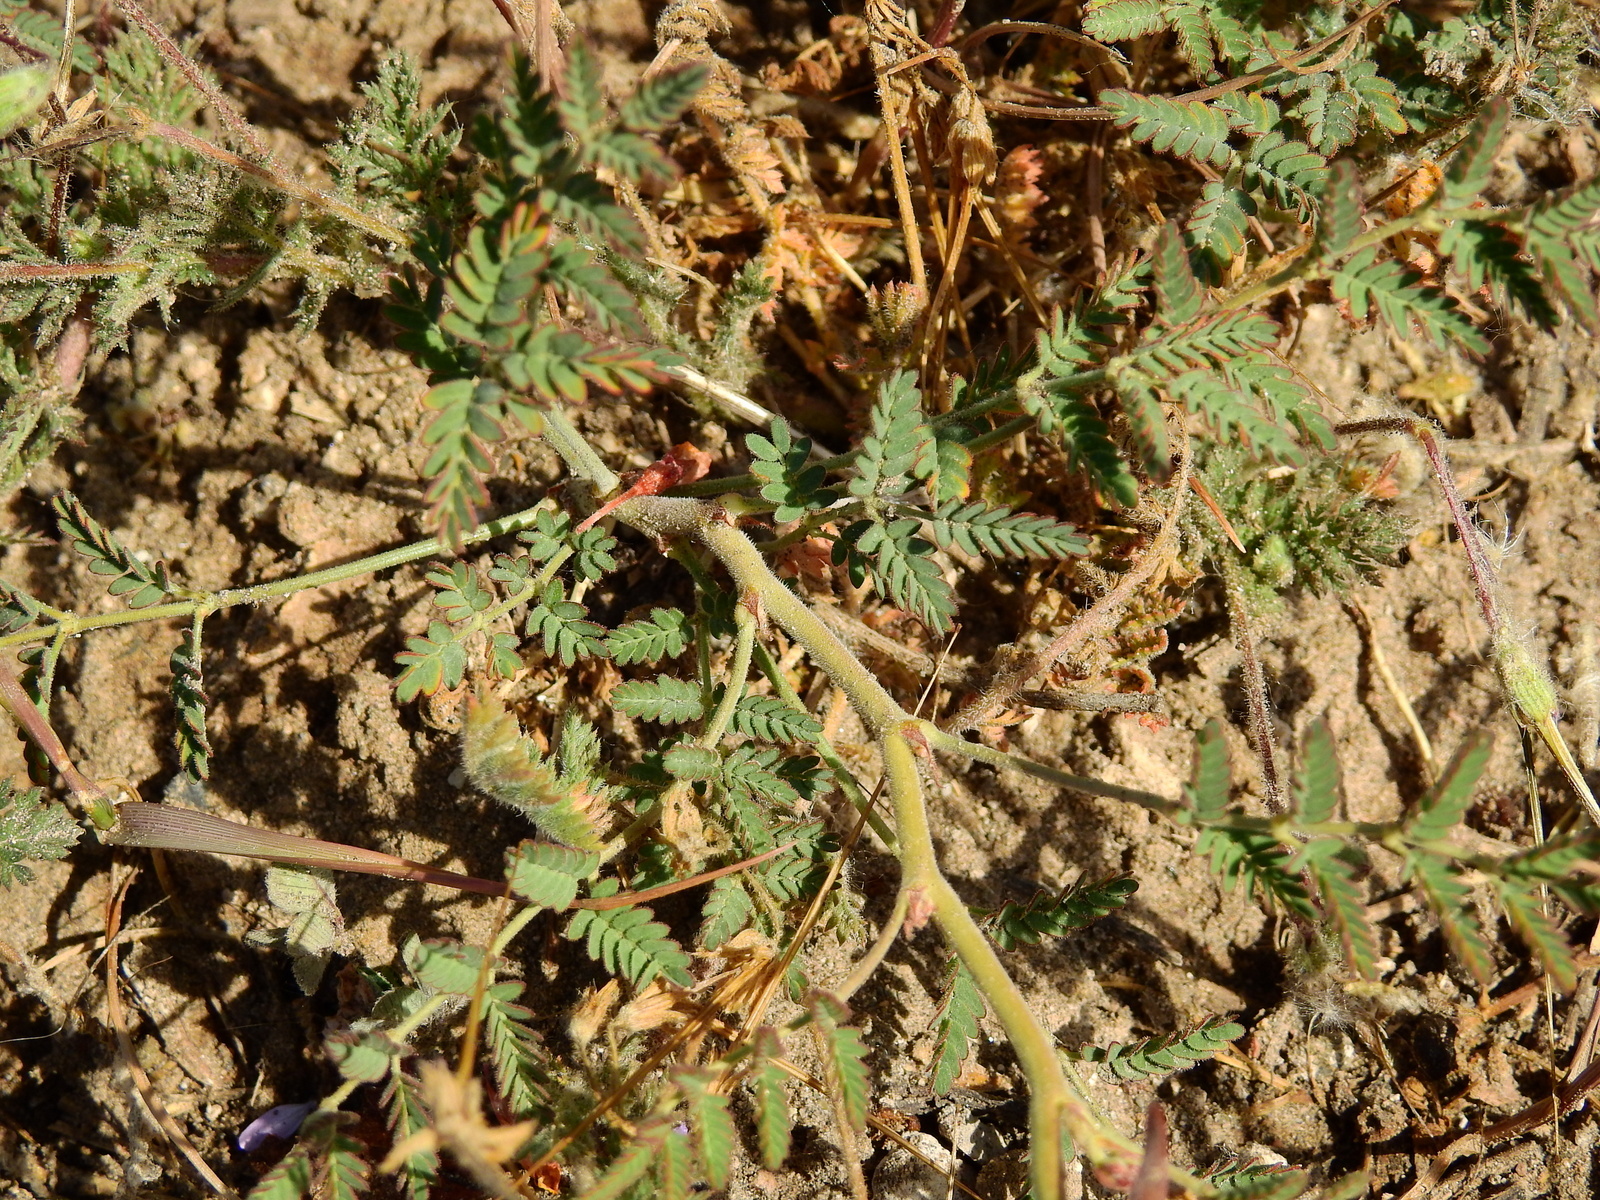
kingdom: Plantae
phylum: Tracheophyta
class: Magnoliopsida
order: Fabales
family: Fabaceae
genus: Hoffmannseggia
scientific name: Hoffmannseggia erecta
